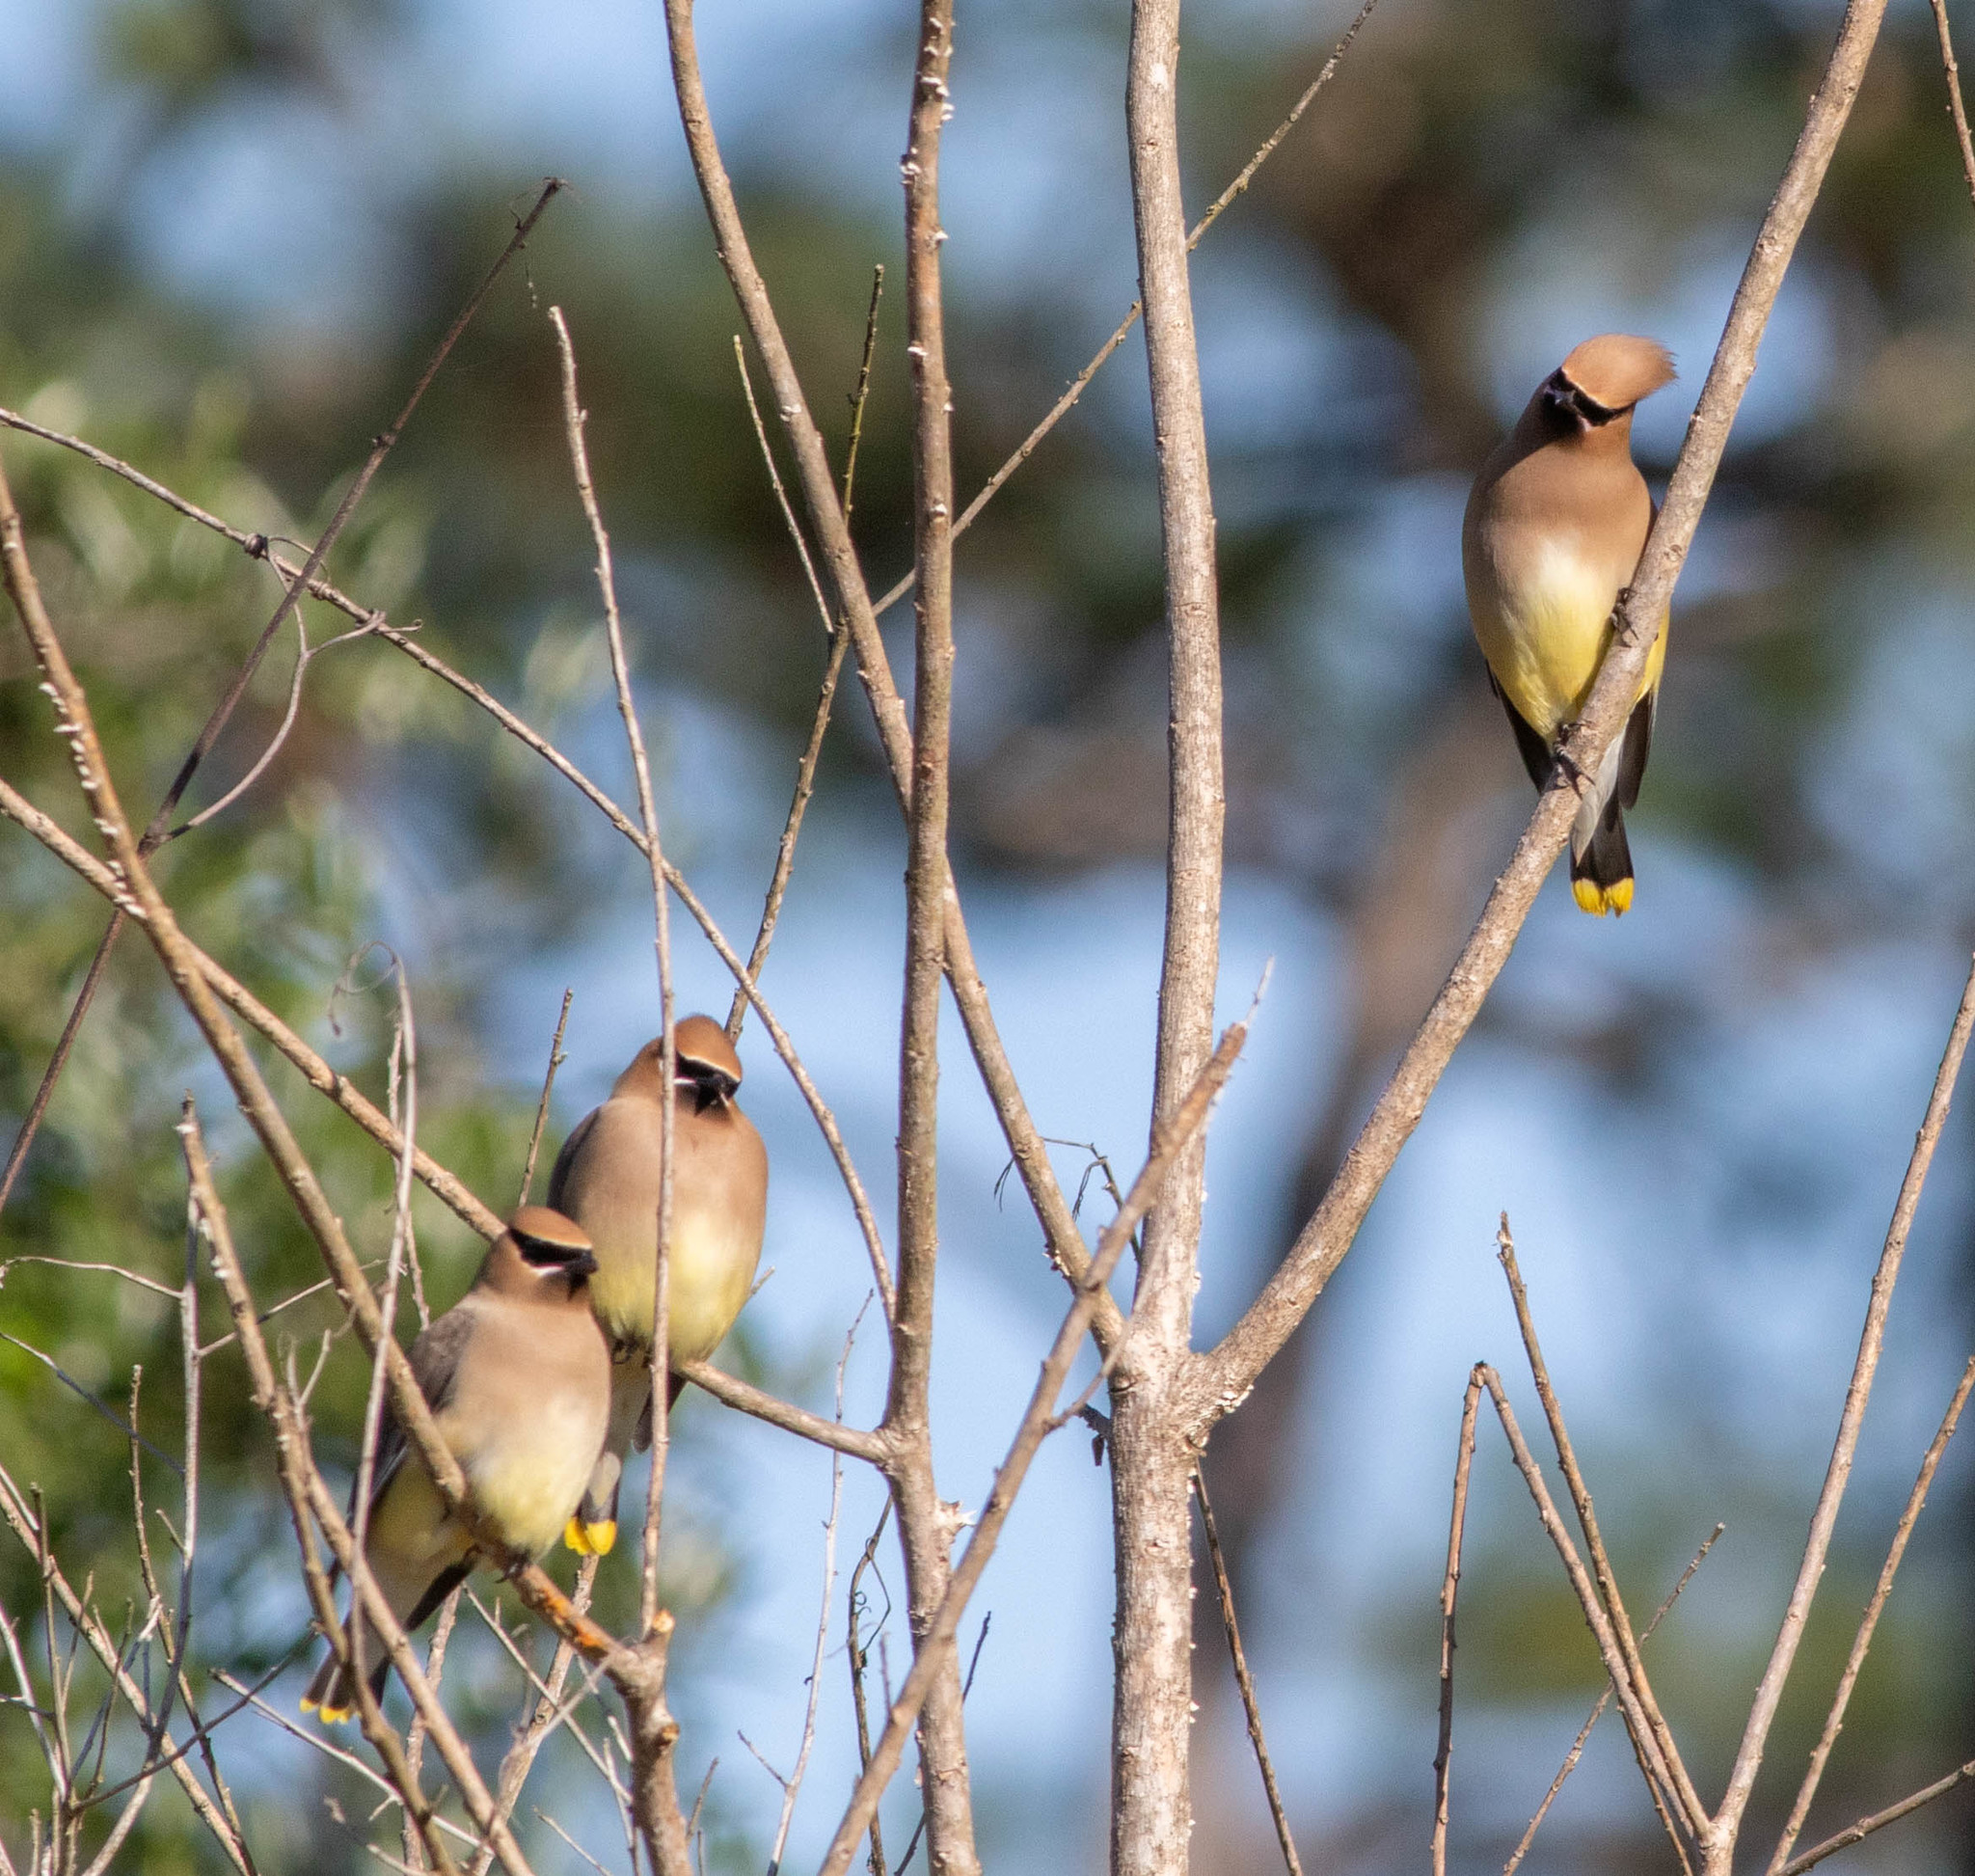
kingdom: Animalia
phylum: Chordata
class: Aves
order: Passeriformes
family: Bombycillidae
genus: Bombycilla
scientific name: Bombycilla cedrorum
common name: Cedar waxwing
